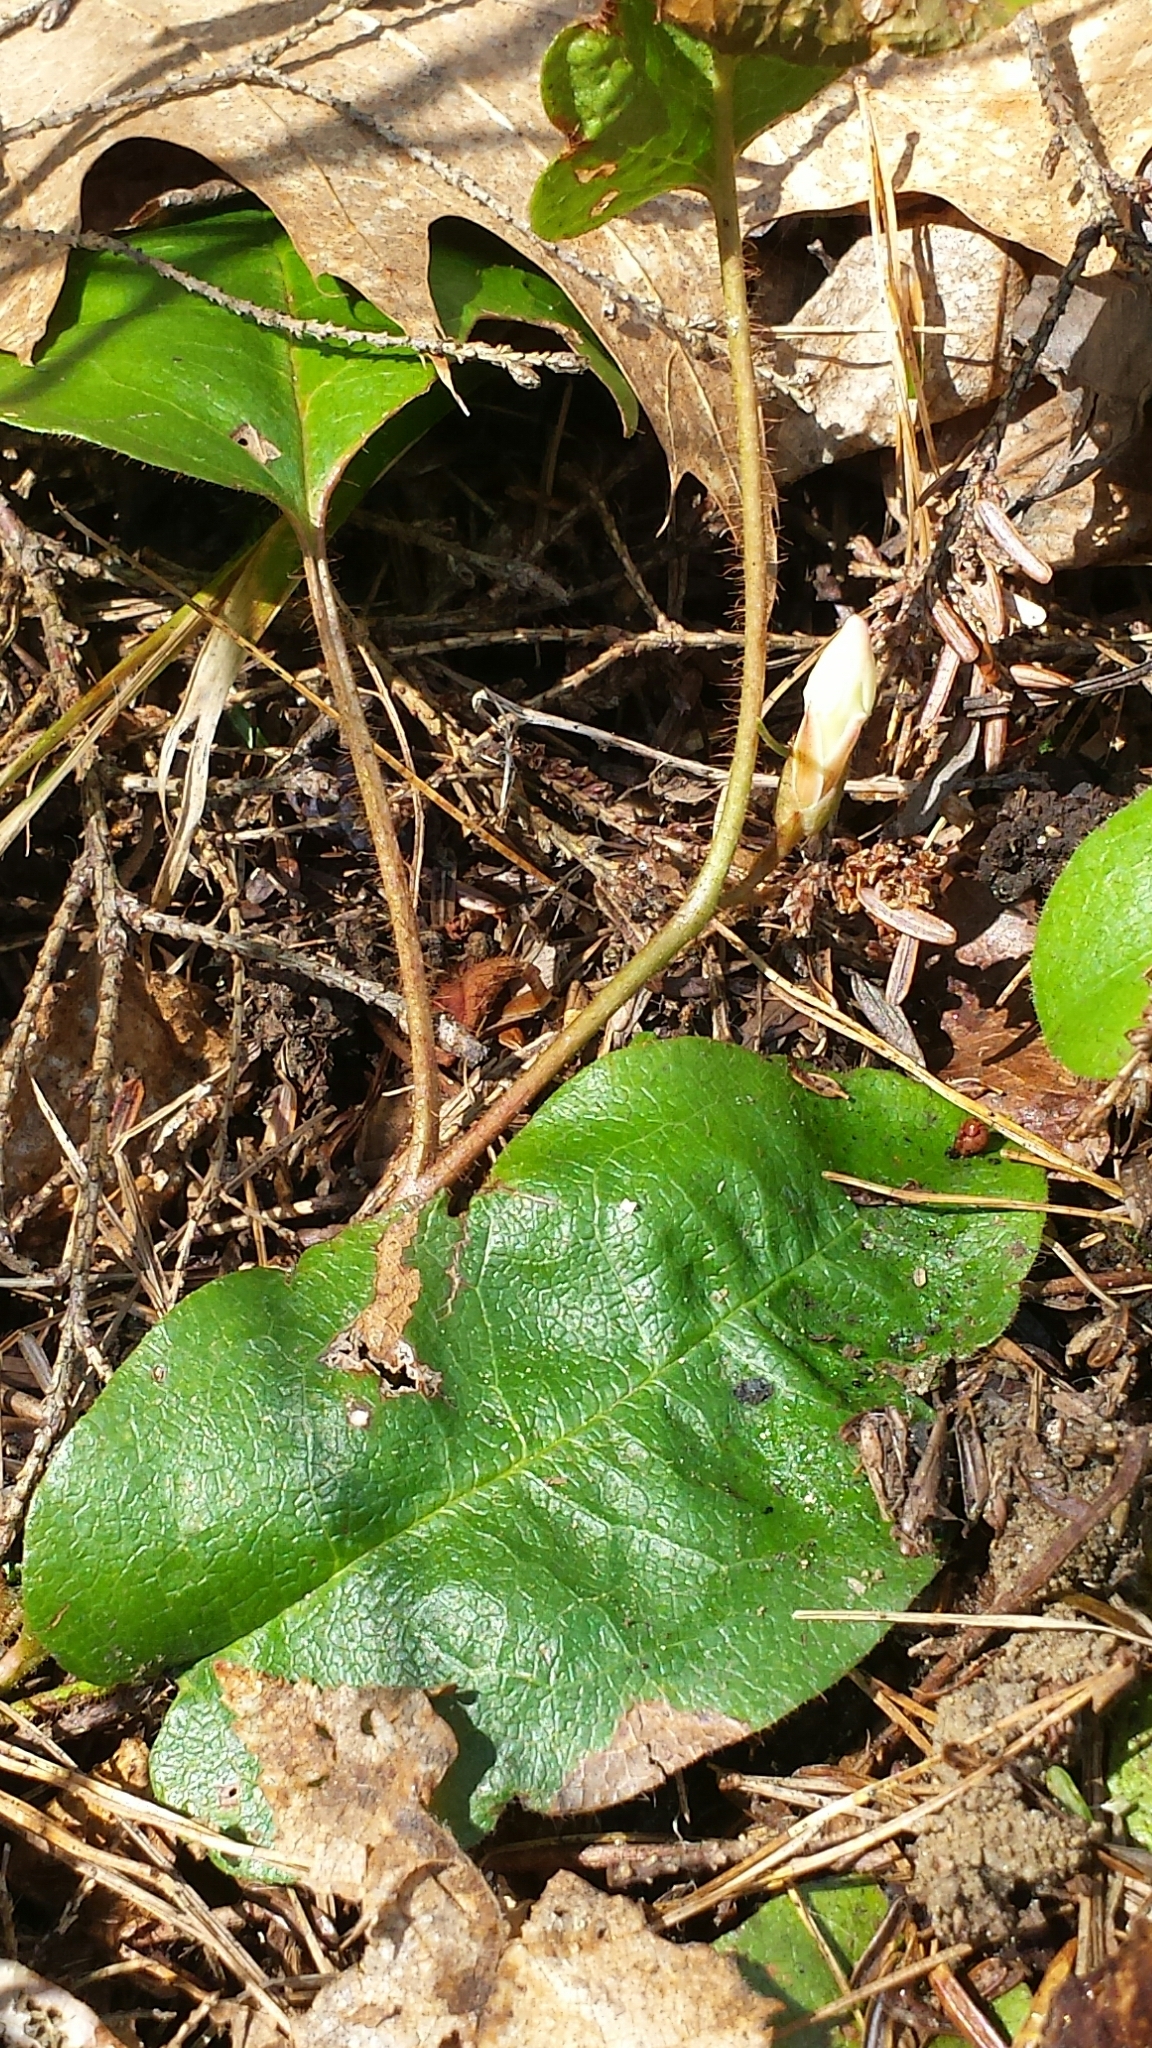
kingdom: Plantae
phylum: Tracheophyta
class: Magnoliopsida
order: Ericales
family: Ericaceae
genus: Epigaea
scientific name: Epigaea repens
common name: Gravelroot
